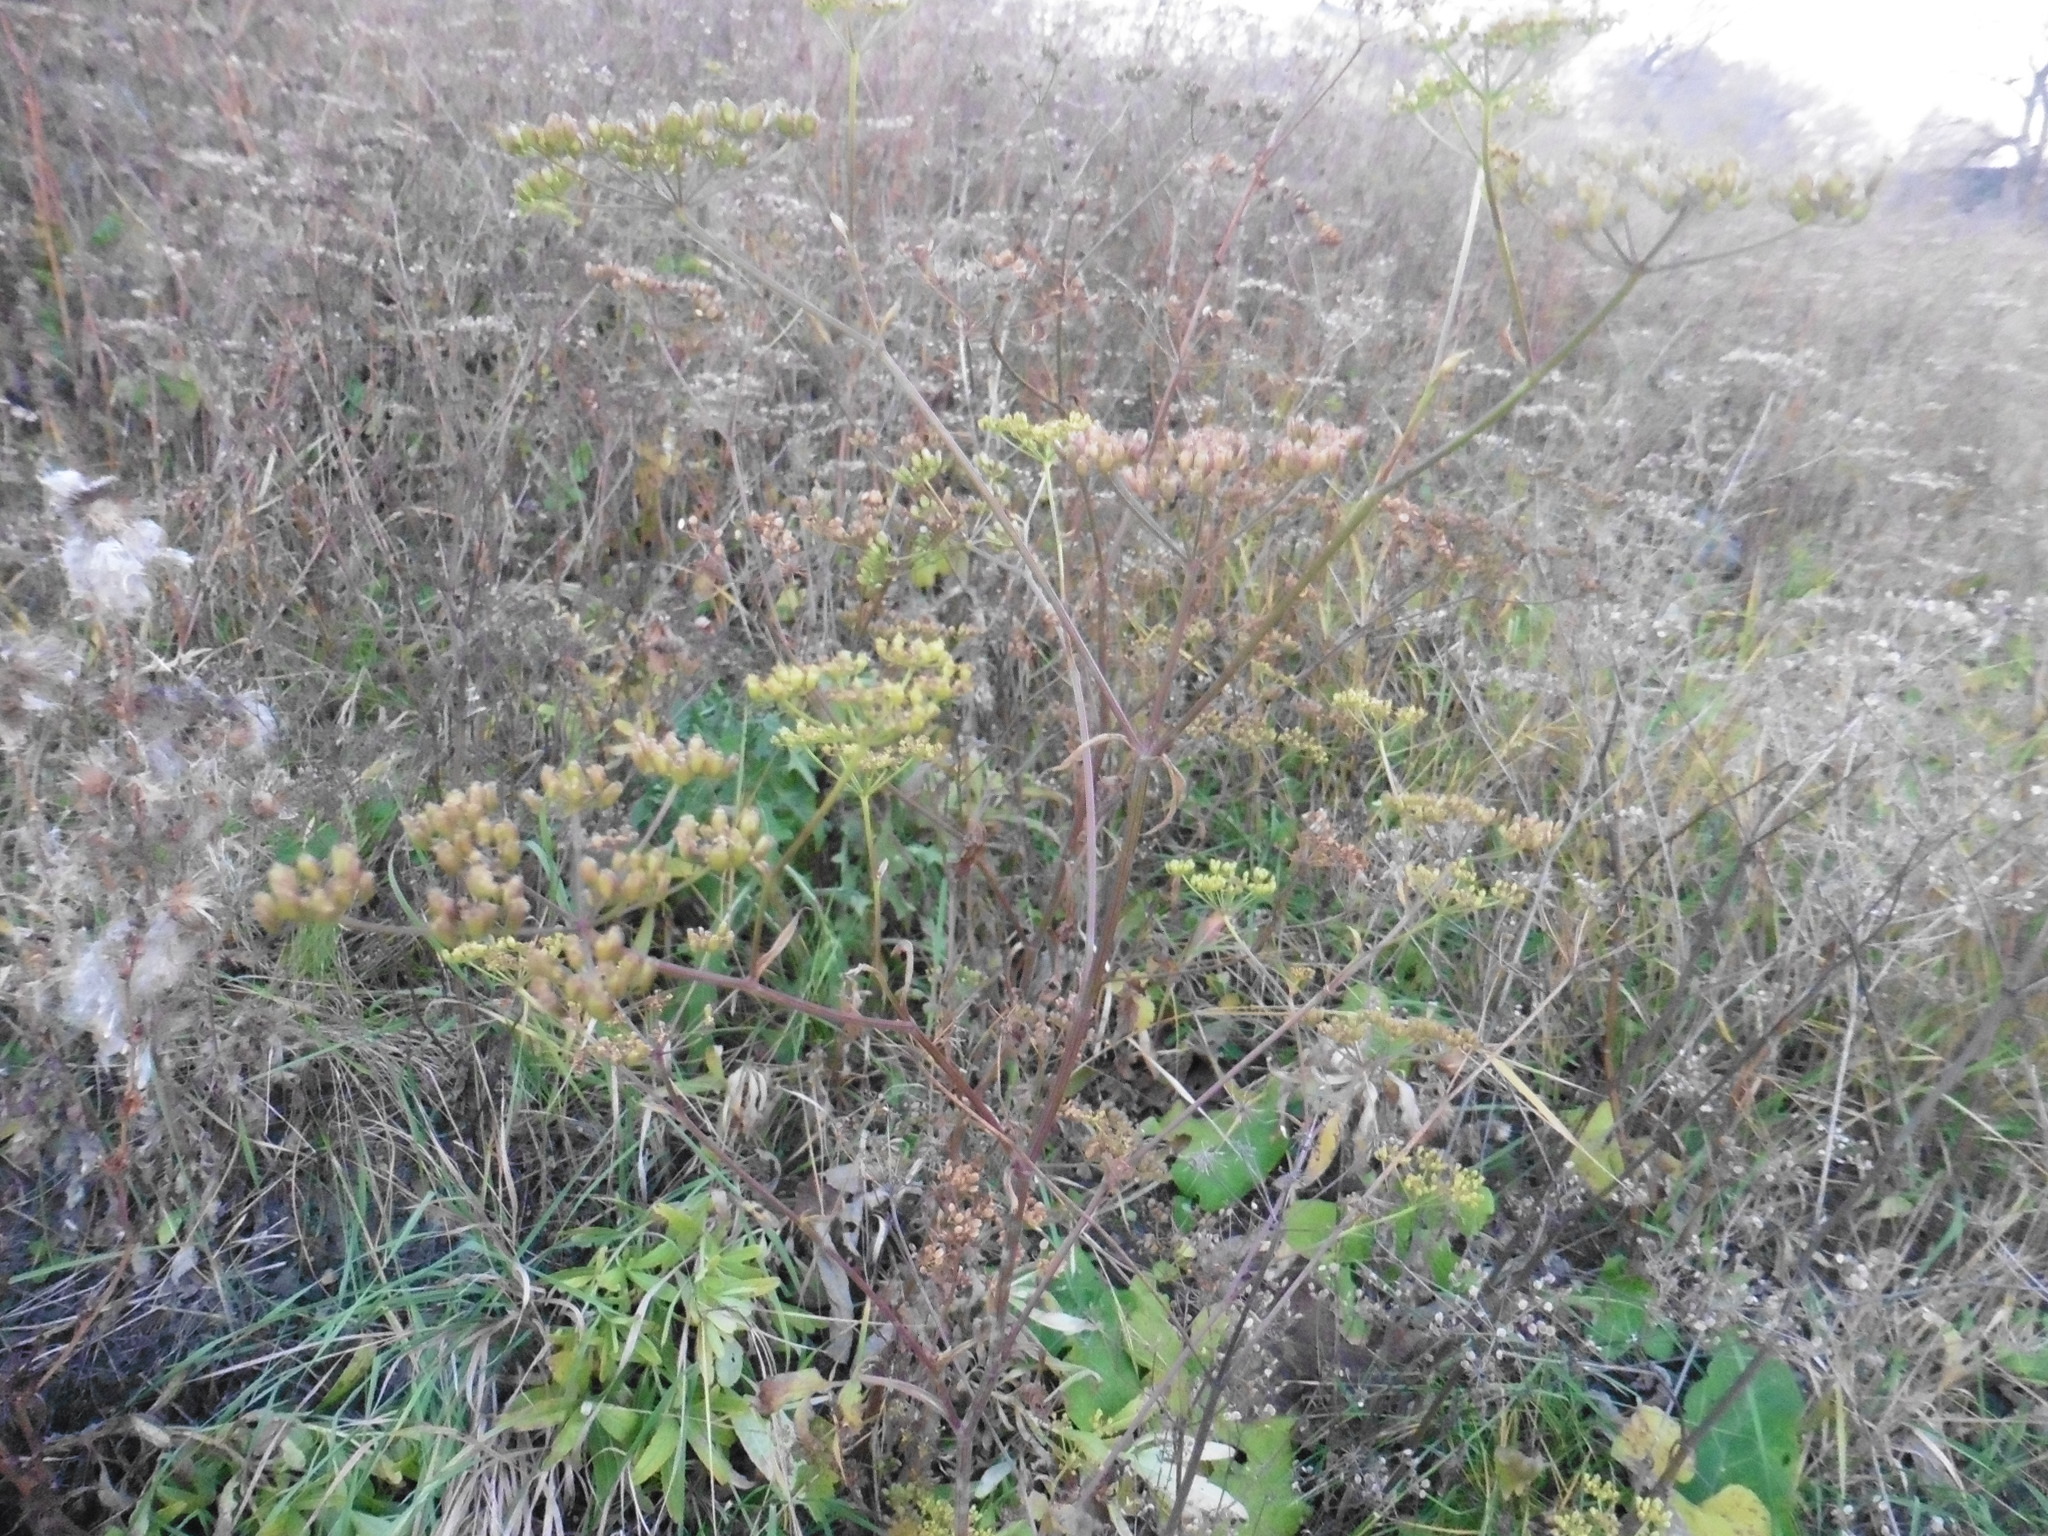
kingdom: Plantae
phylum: Tracheophyta
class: Magnoliopsida
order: Apiales
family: Apiaceae
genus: Pastinaca
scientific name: Pastinaca sativa
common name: Wild parsnip
